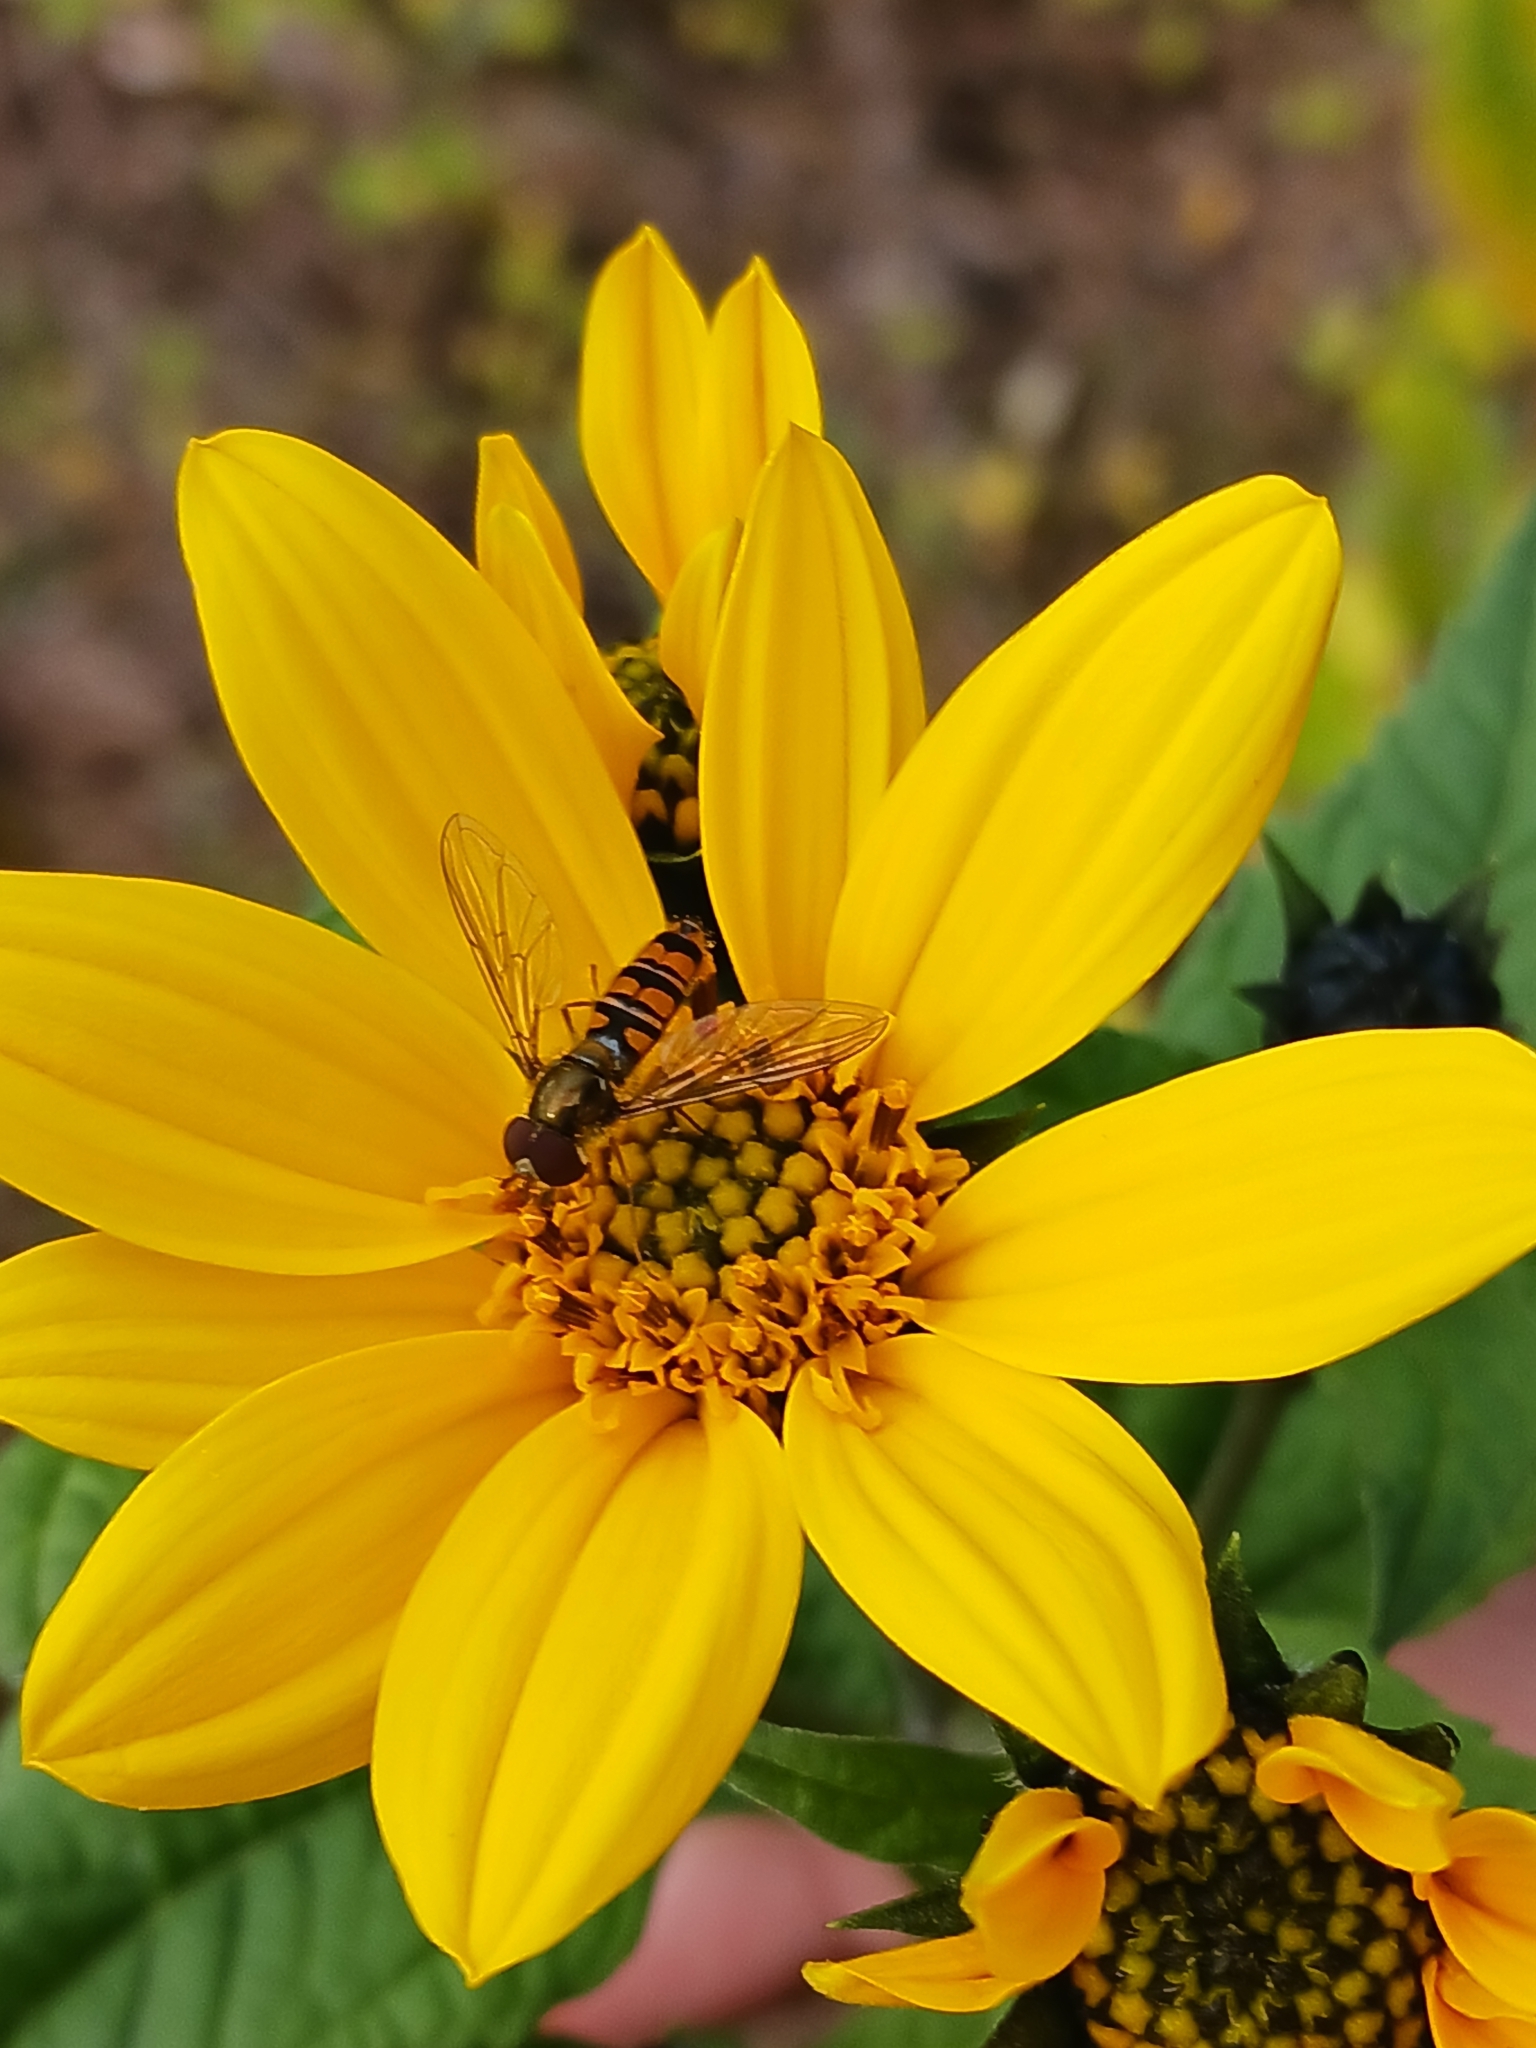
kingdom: Animalia
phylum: Arthropoda
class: Insecta
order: Diptera
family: Syrphidae
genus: Episyrphus
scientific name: Episyrphus balteatus
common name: Marmalade hoverfly
